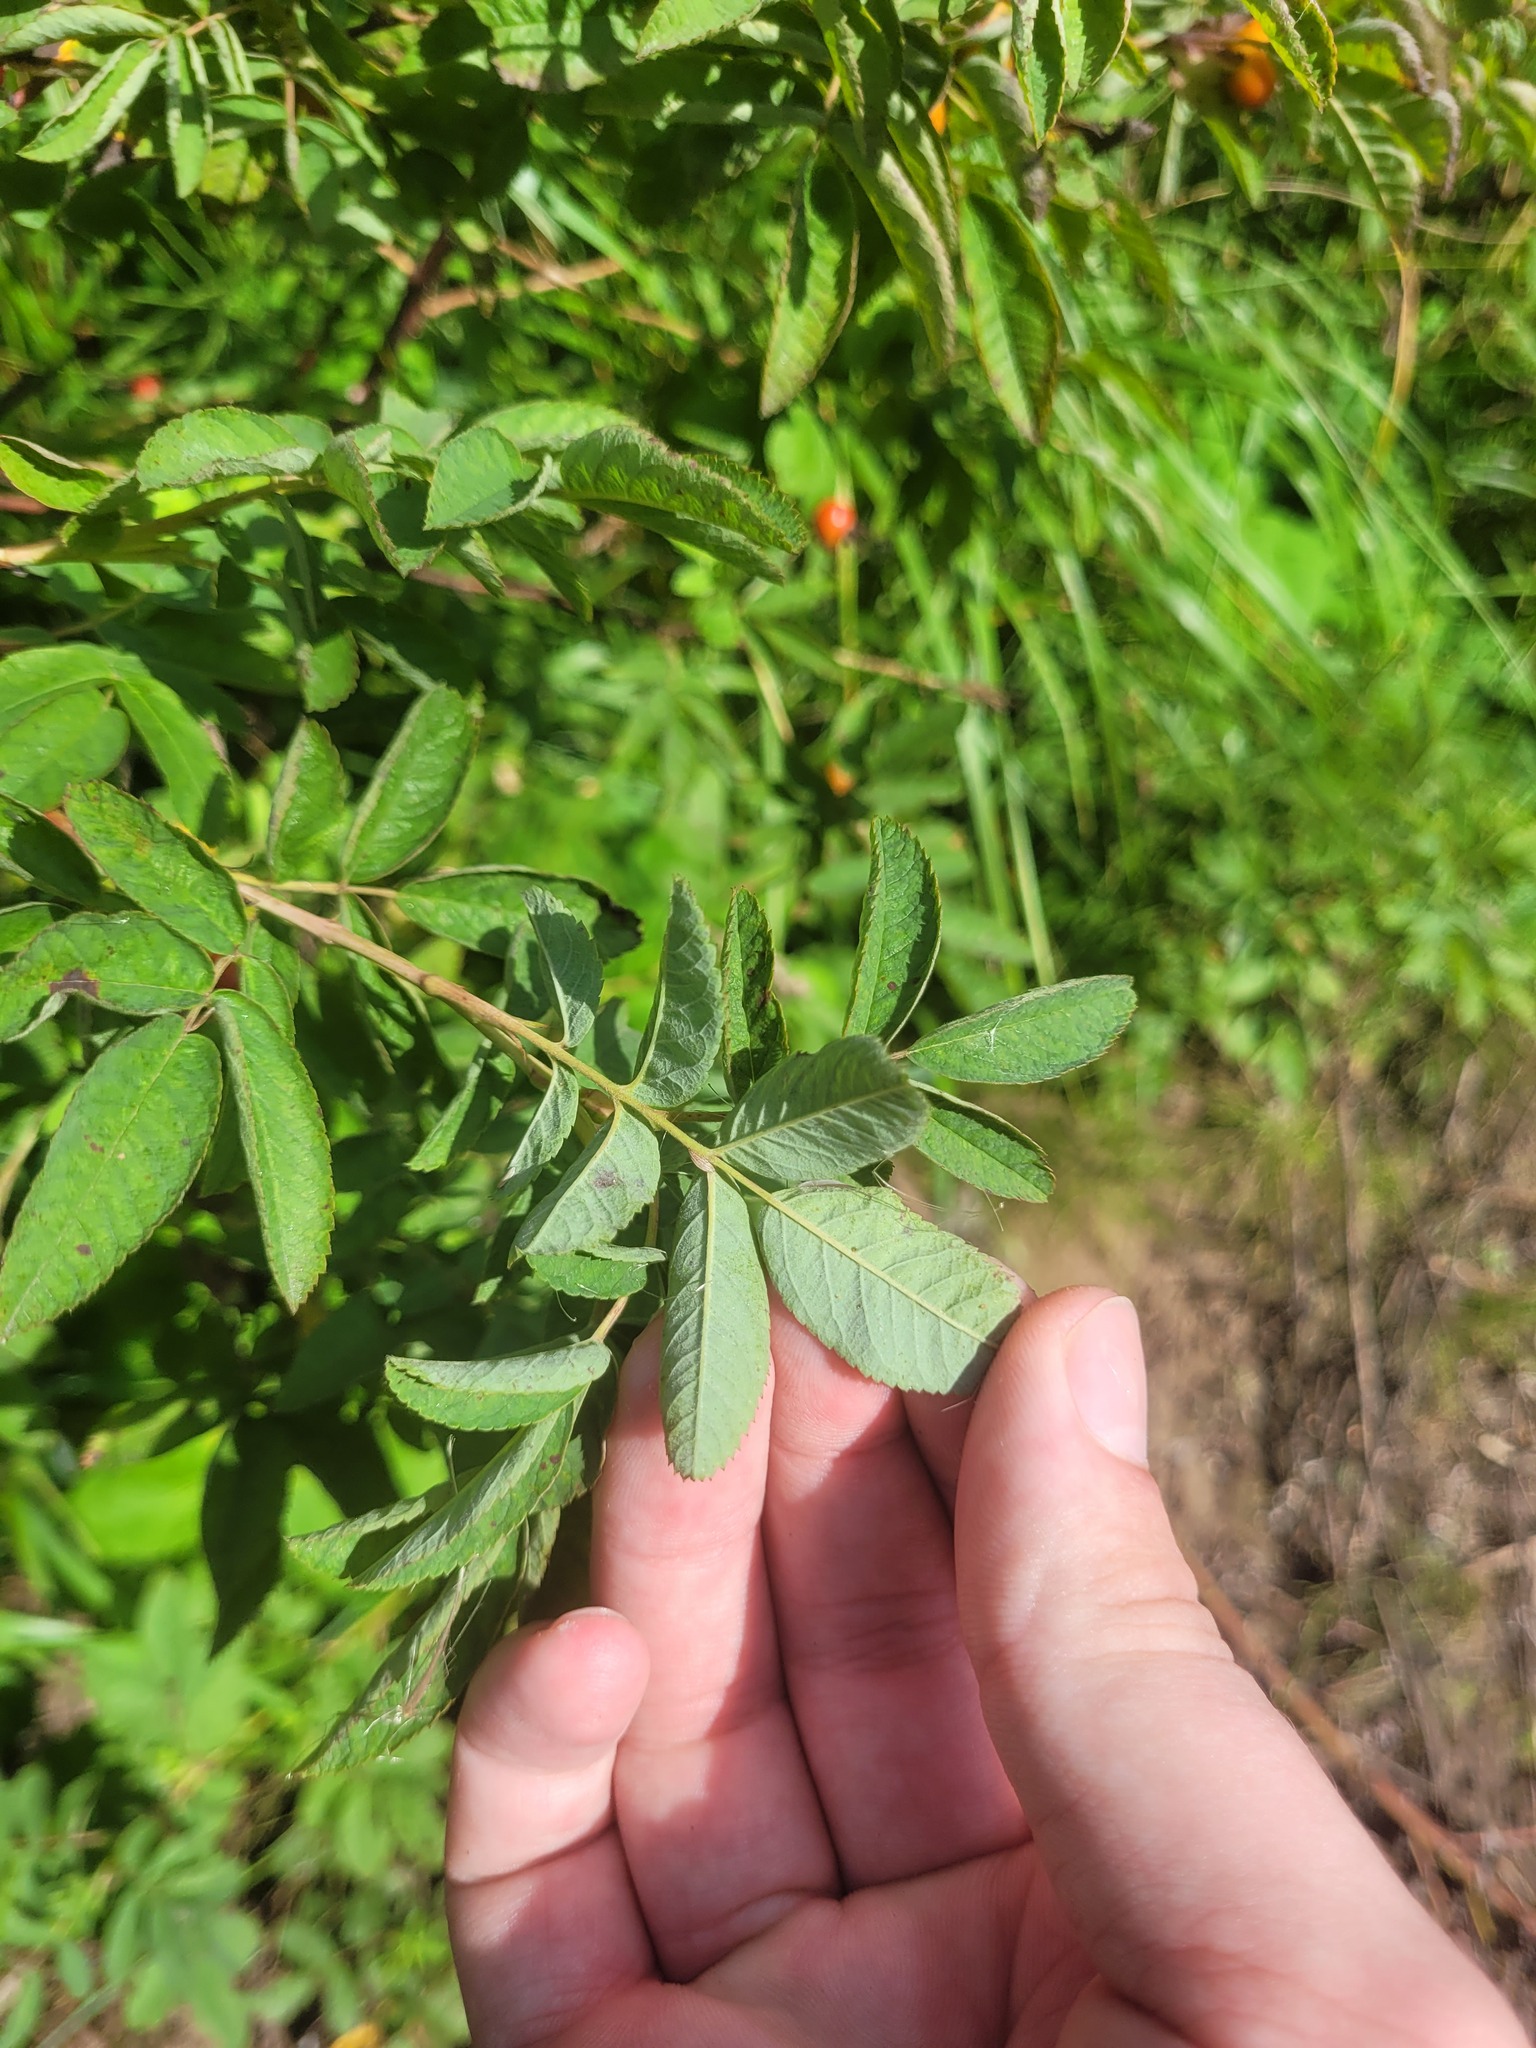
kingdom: Plantae
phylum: Tracheophyta
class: Magnoliopsida
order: Rosales
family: Rosaceae
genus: Rosa
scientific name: Rosa majalis
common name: Cinnamon rose
